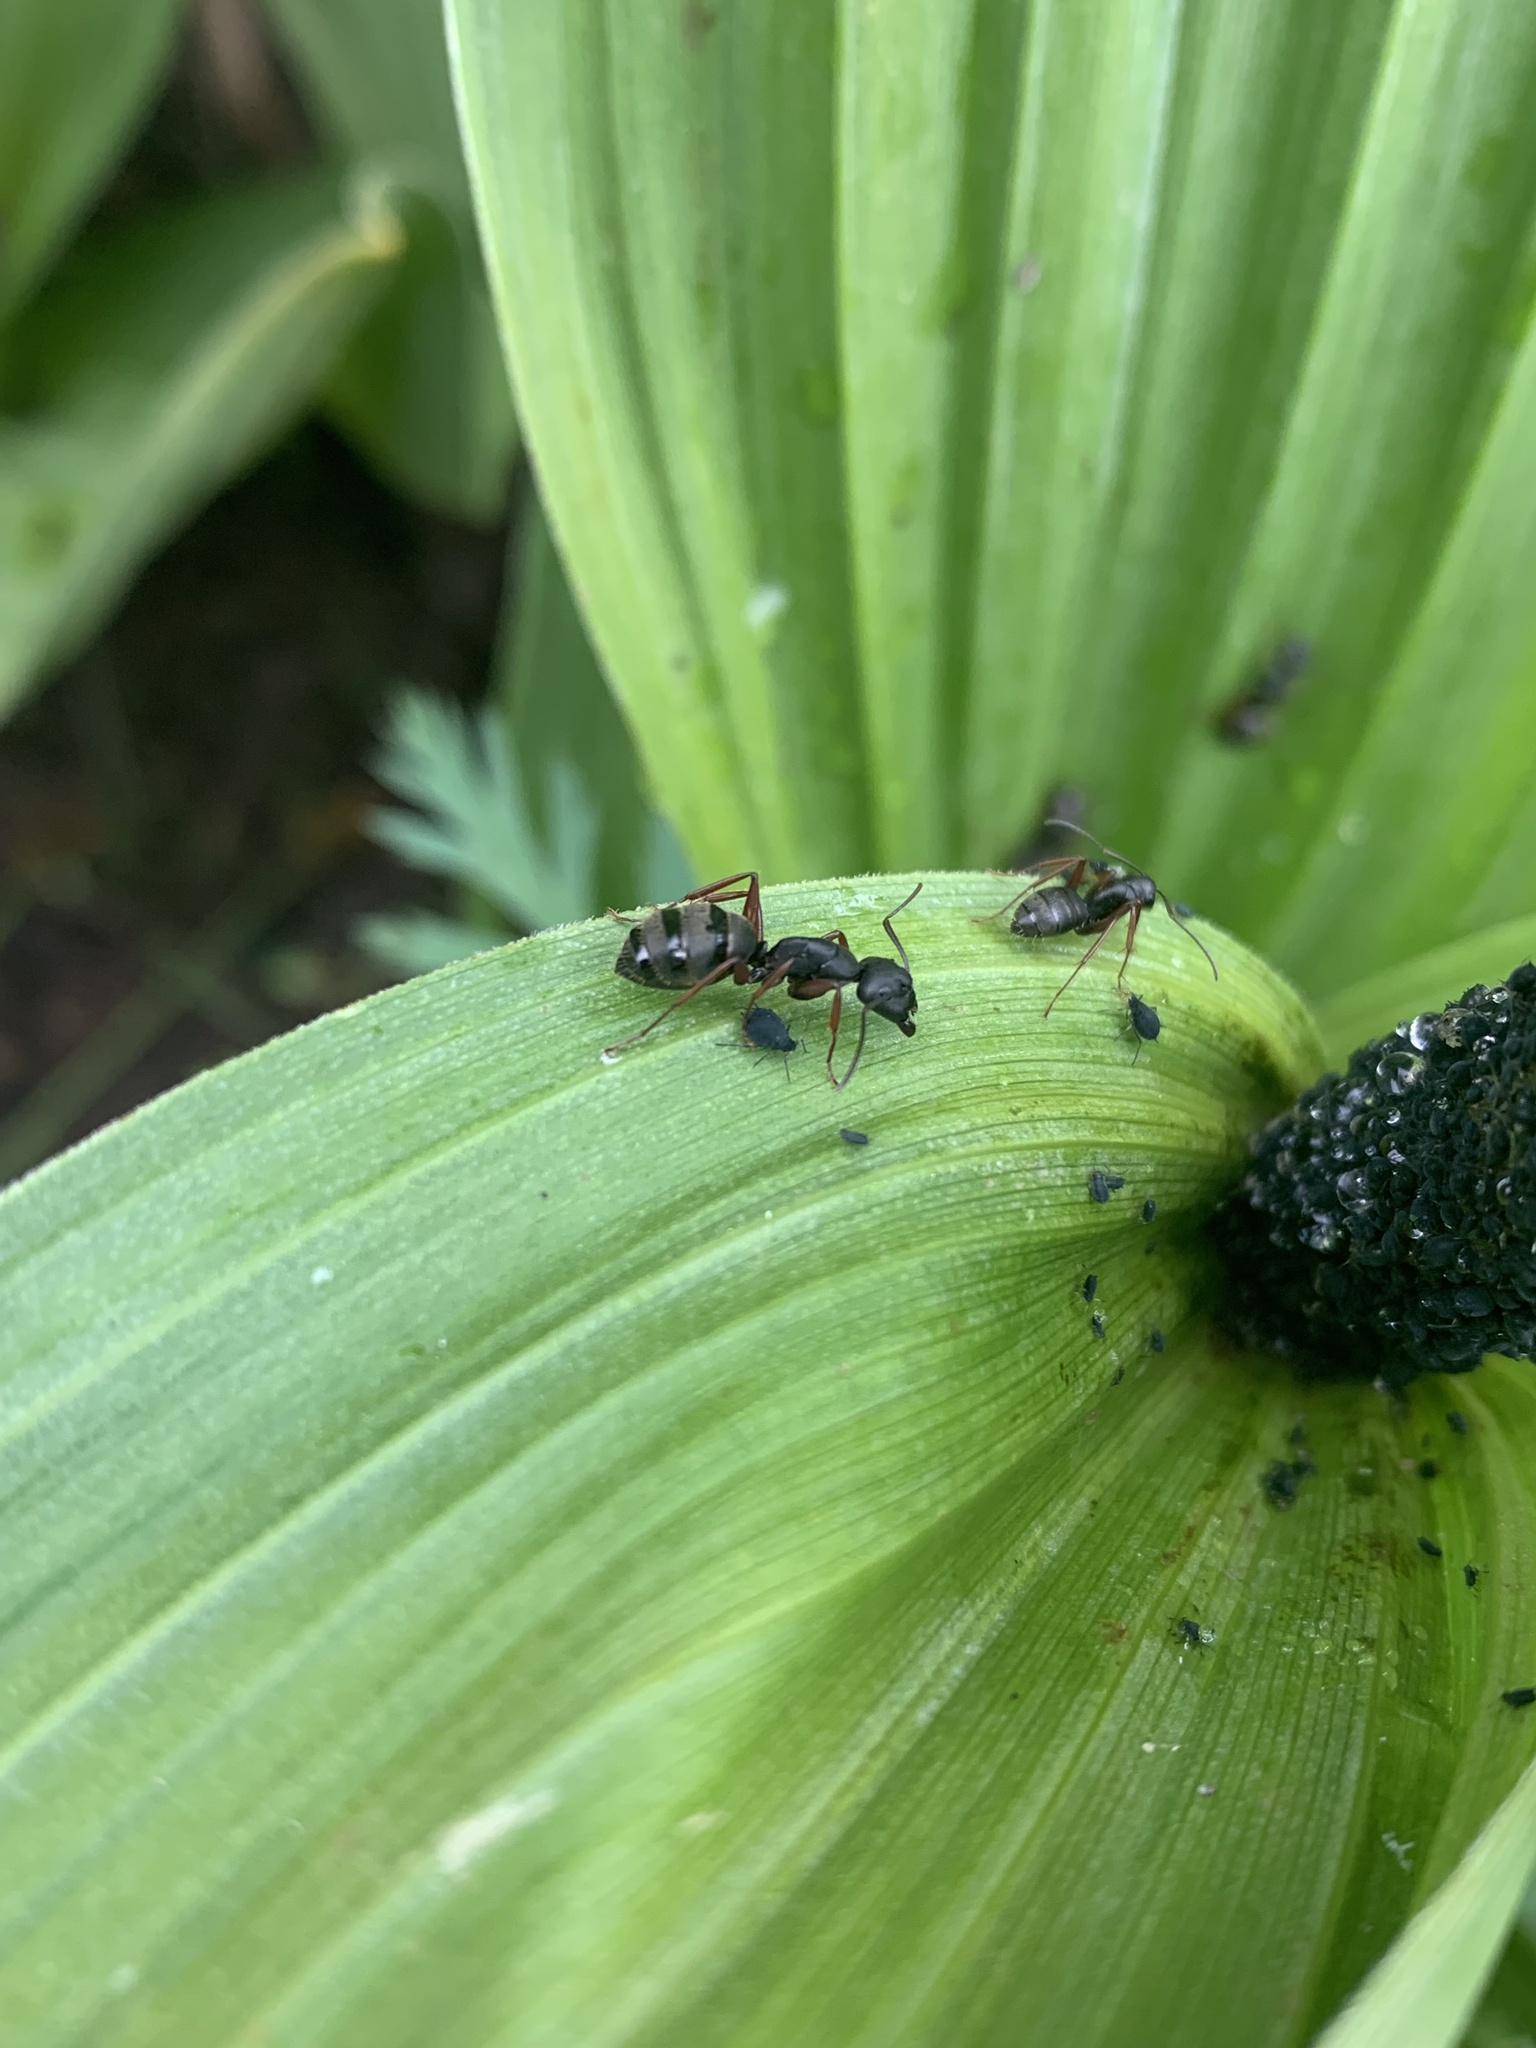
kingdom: Animalia
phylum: Arthropoda
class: Insecta
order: Hymenoptera
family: Formicidae
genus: Camponotus
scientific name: Camponotus modoc
